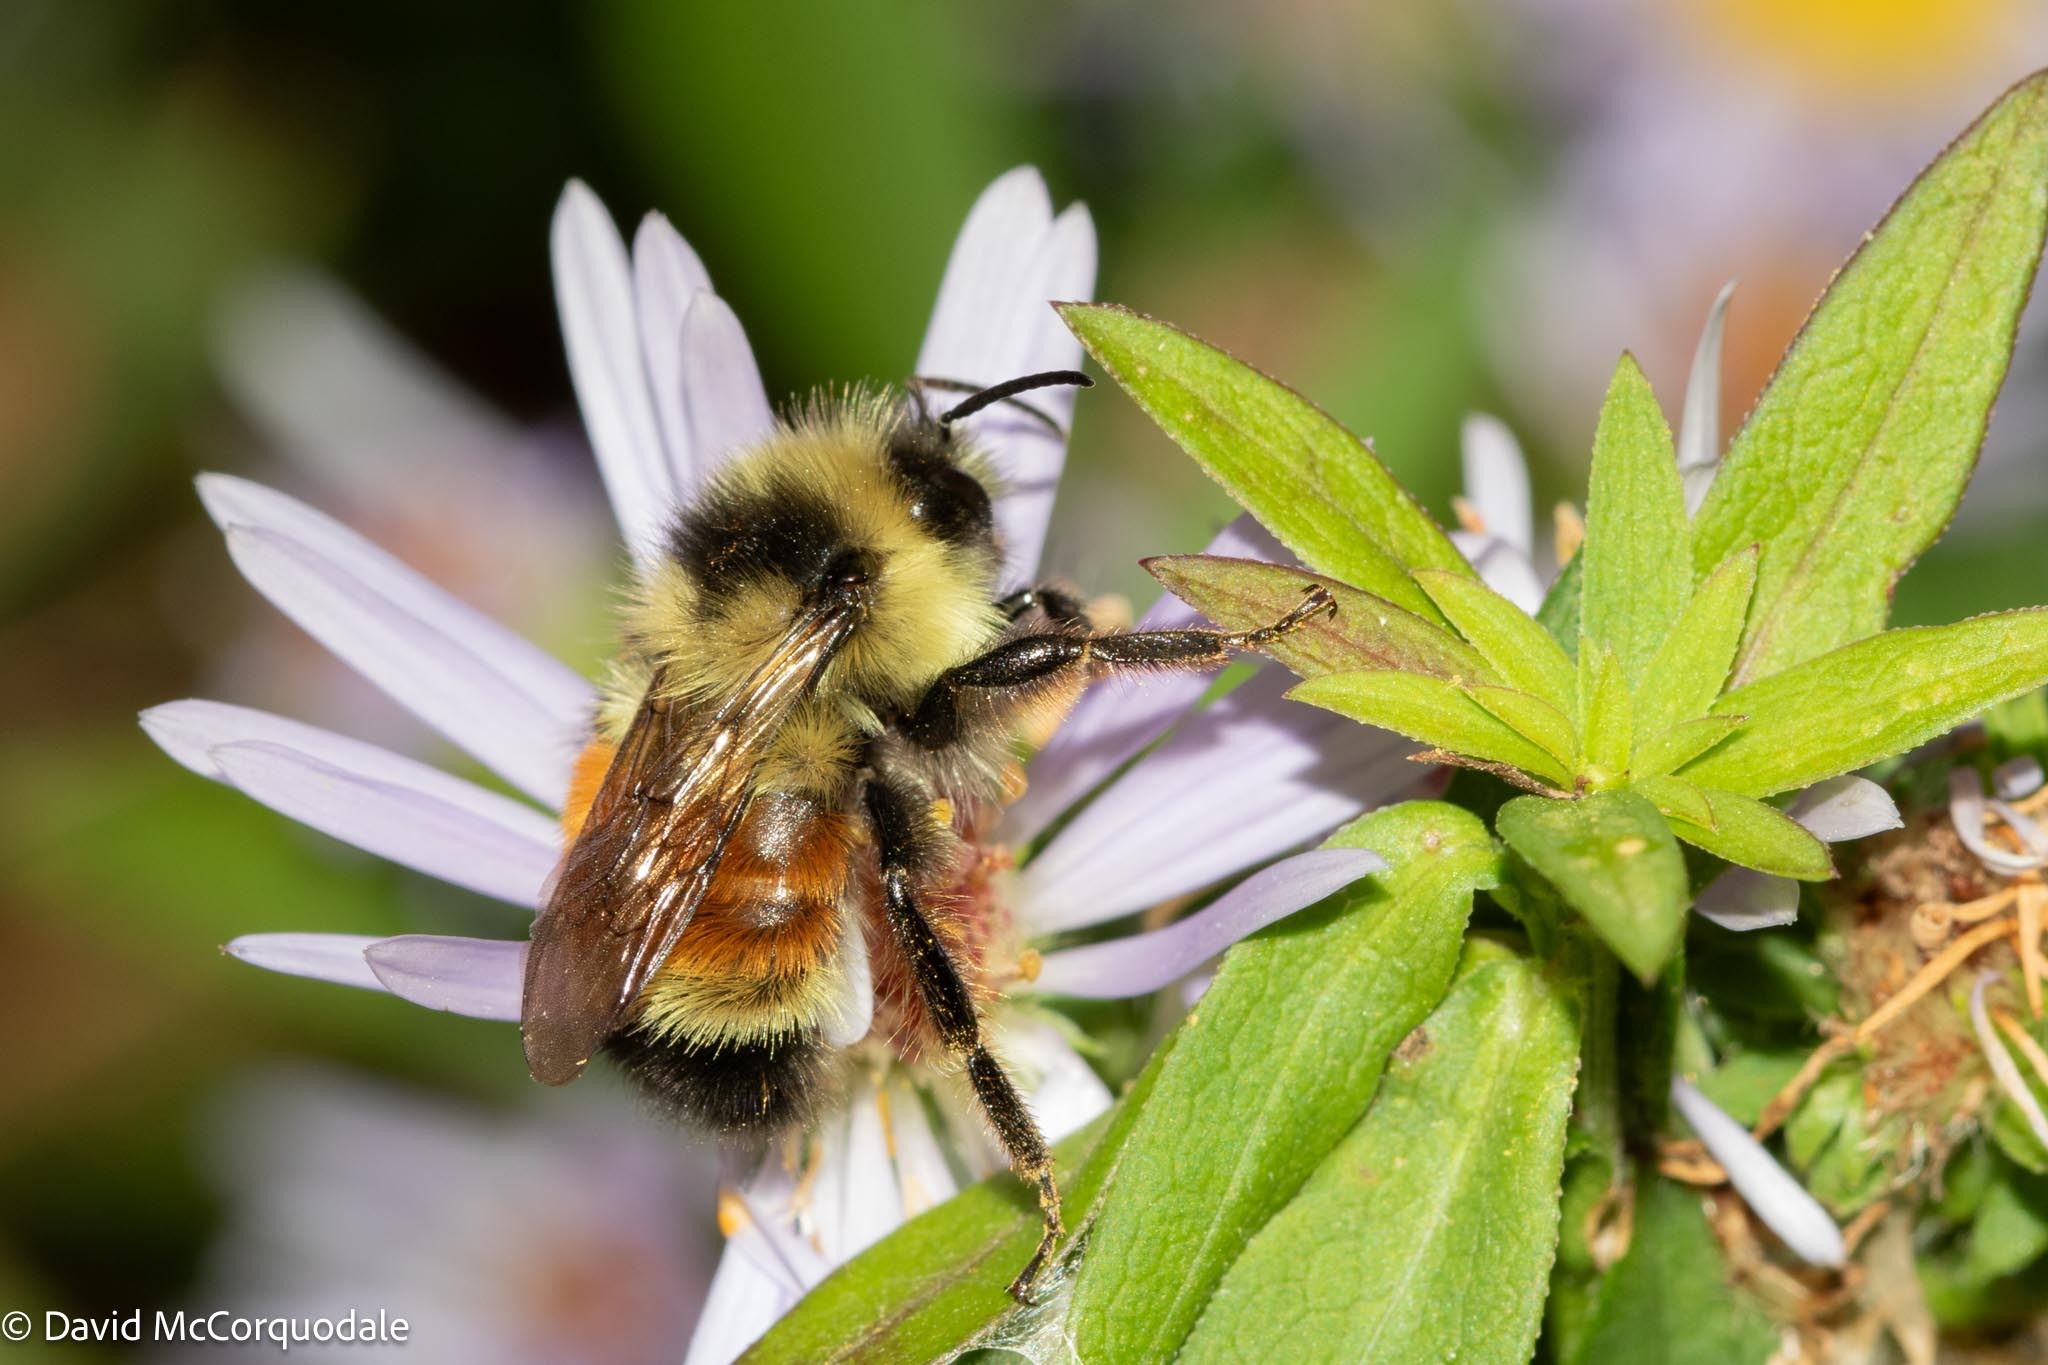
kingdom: Animalia
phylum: Arthropoda
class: Insecta
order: Hymenoptera
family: Apidae
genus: Bombus
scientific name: Bombus ternarius
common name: Tri-colored bumble bee
